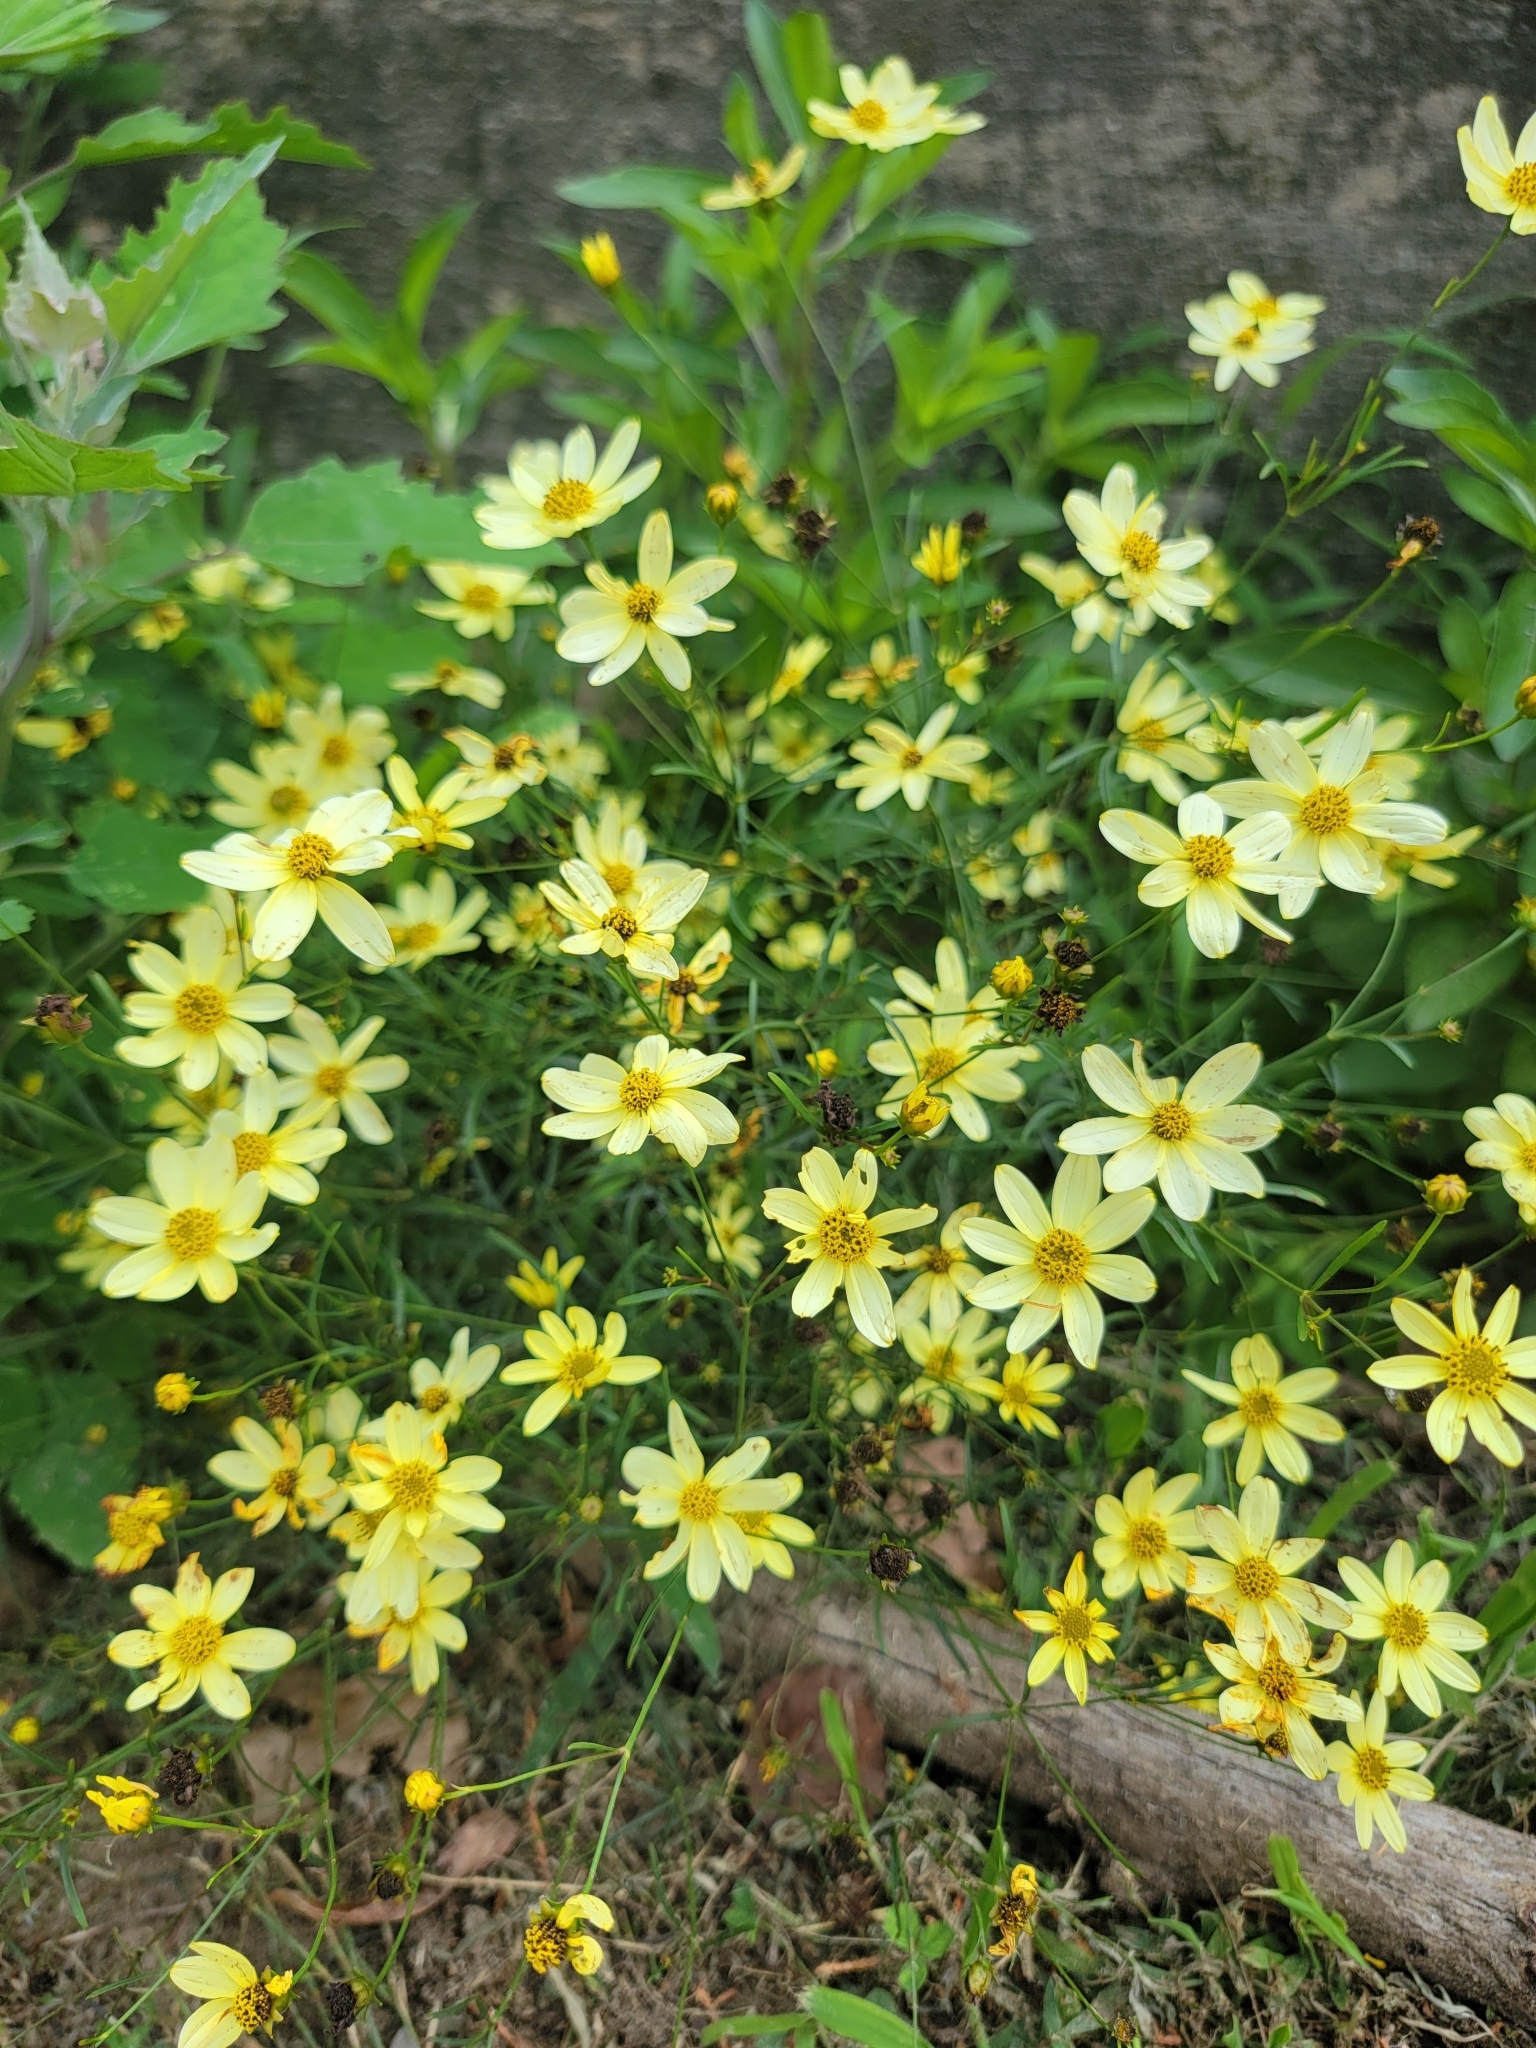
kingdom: Plantae
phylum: Tracheophyta
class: Magnoliopsida
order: Asterales
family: Asteraceae
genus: Coreopsis
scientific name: Coreopsis verticillata
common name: Whorled tickseed
